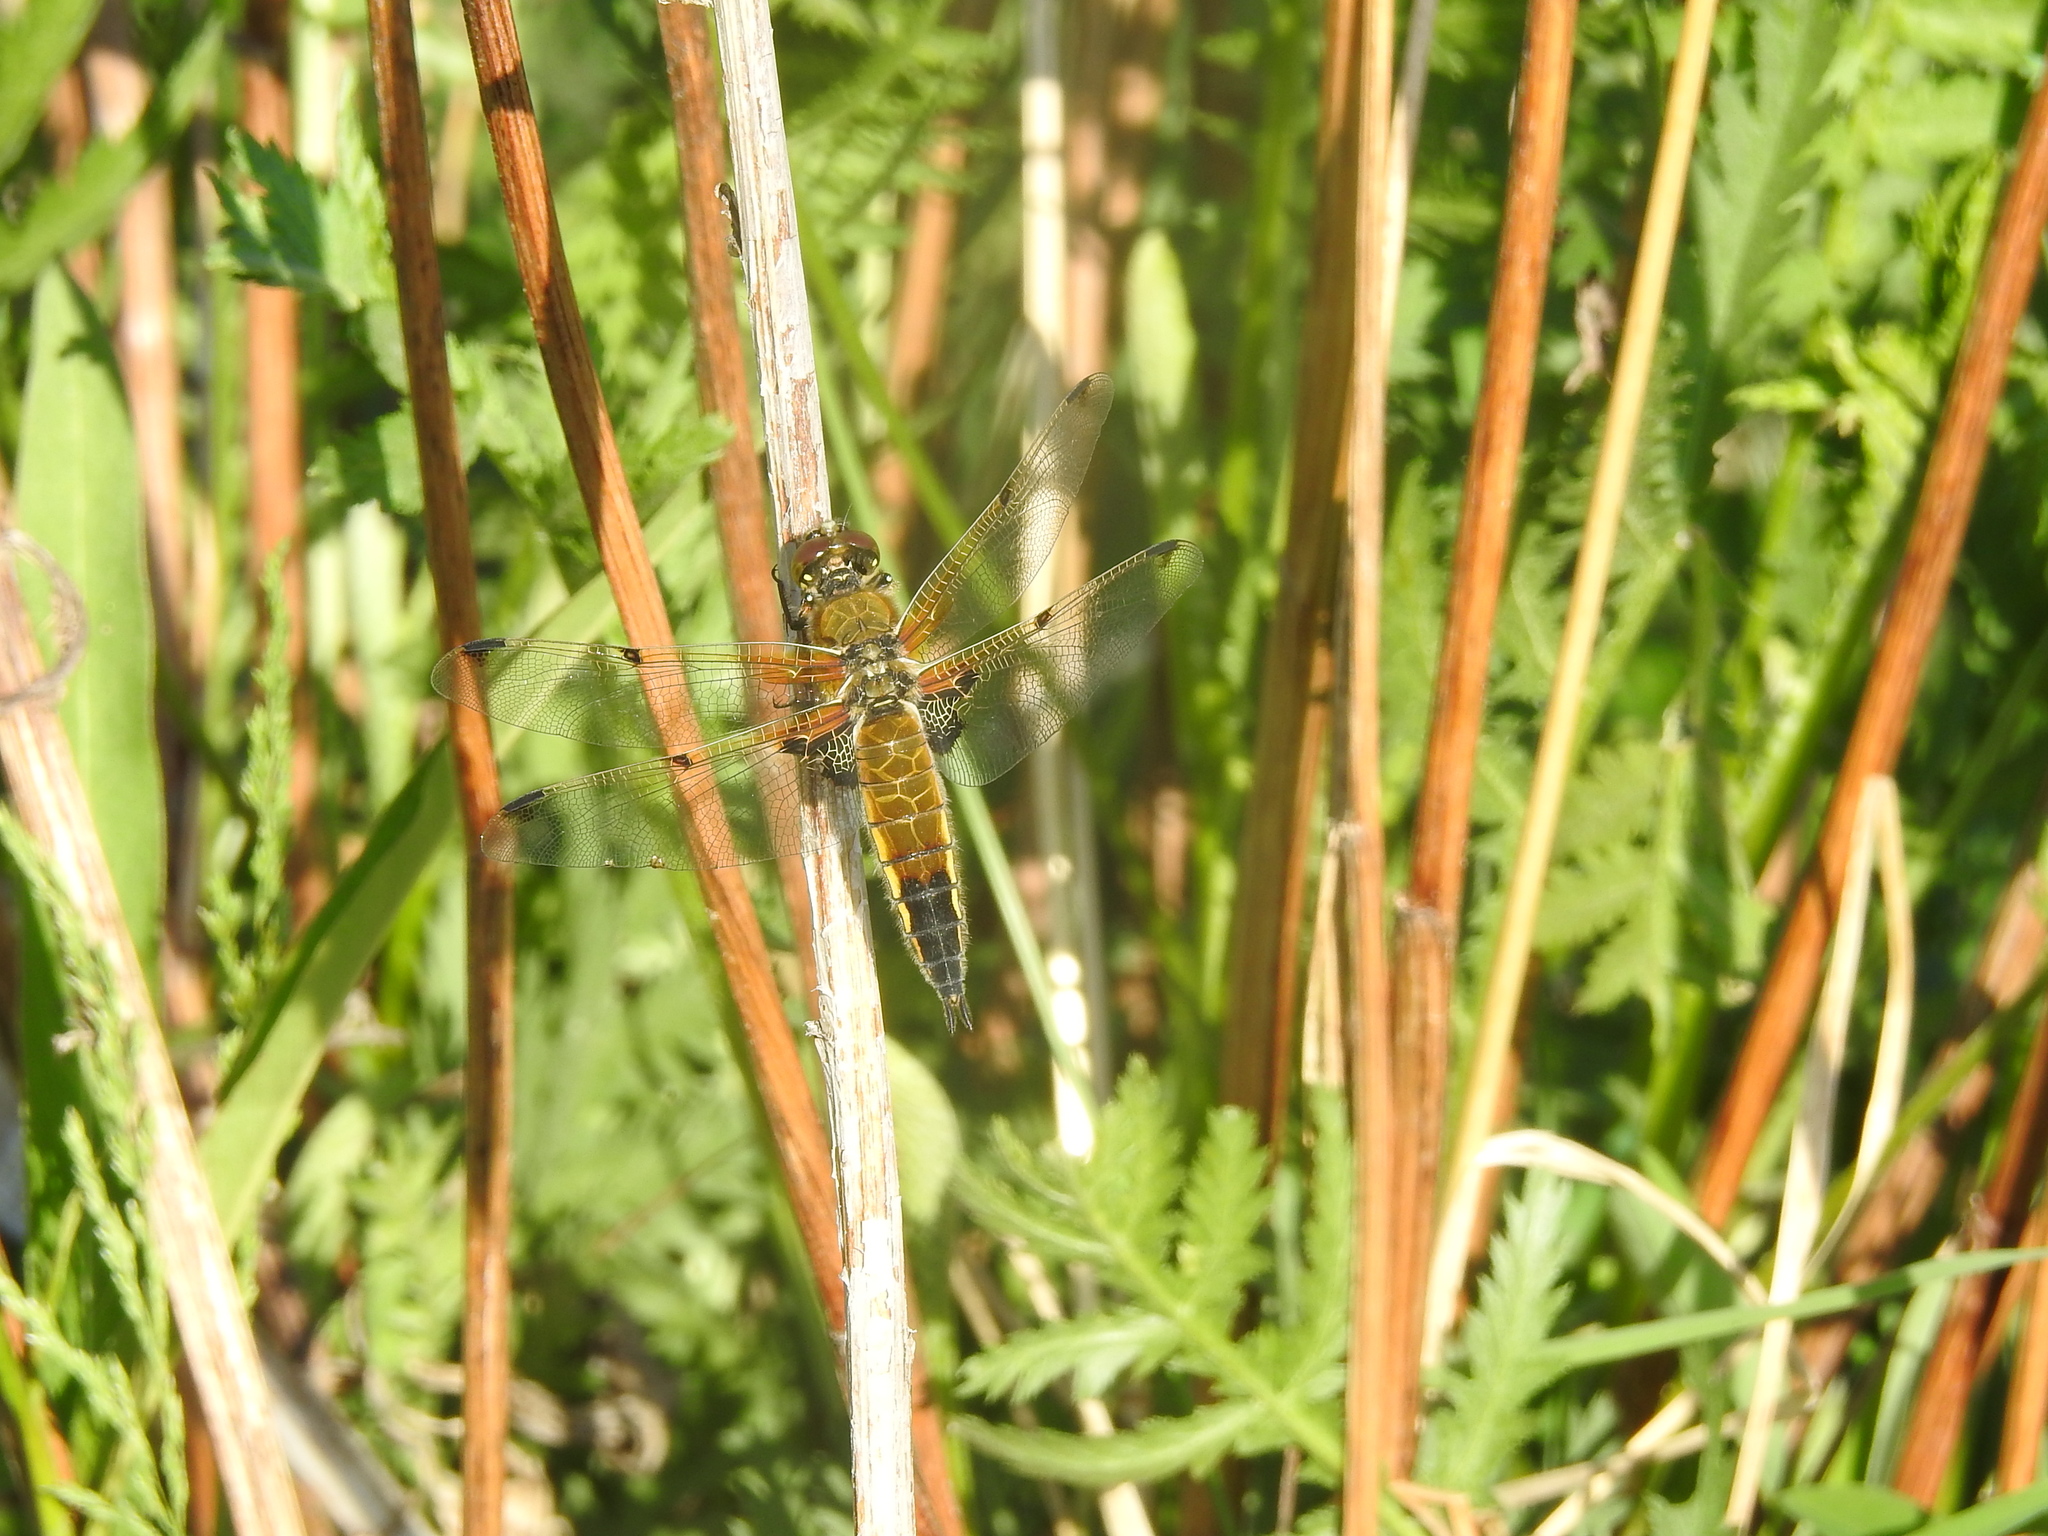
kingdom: Animalia
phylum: Arthropoda
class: Insecta
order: Odonata
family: Libellulidae
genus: Libellula
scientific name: Libellula quadrimaculata
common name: Four-spotted chaser
